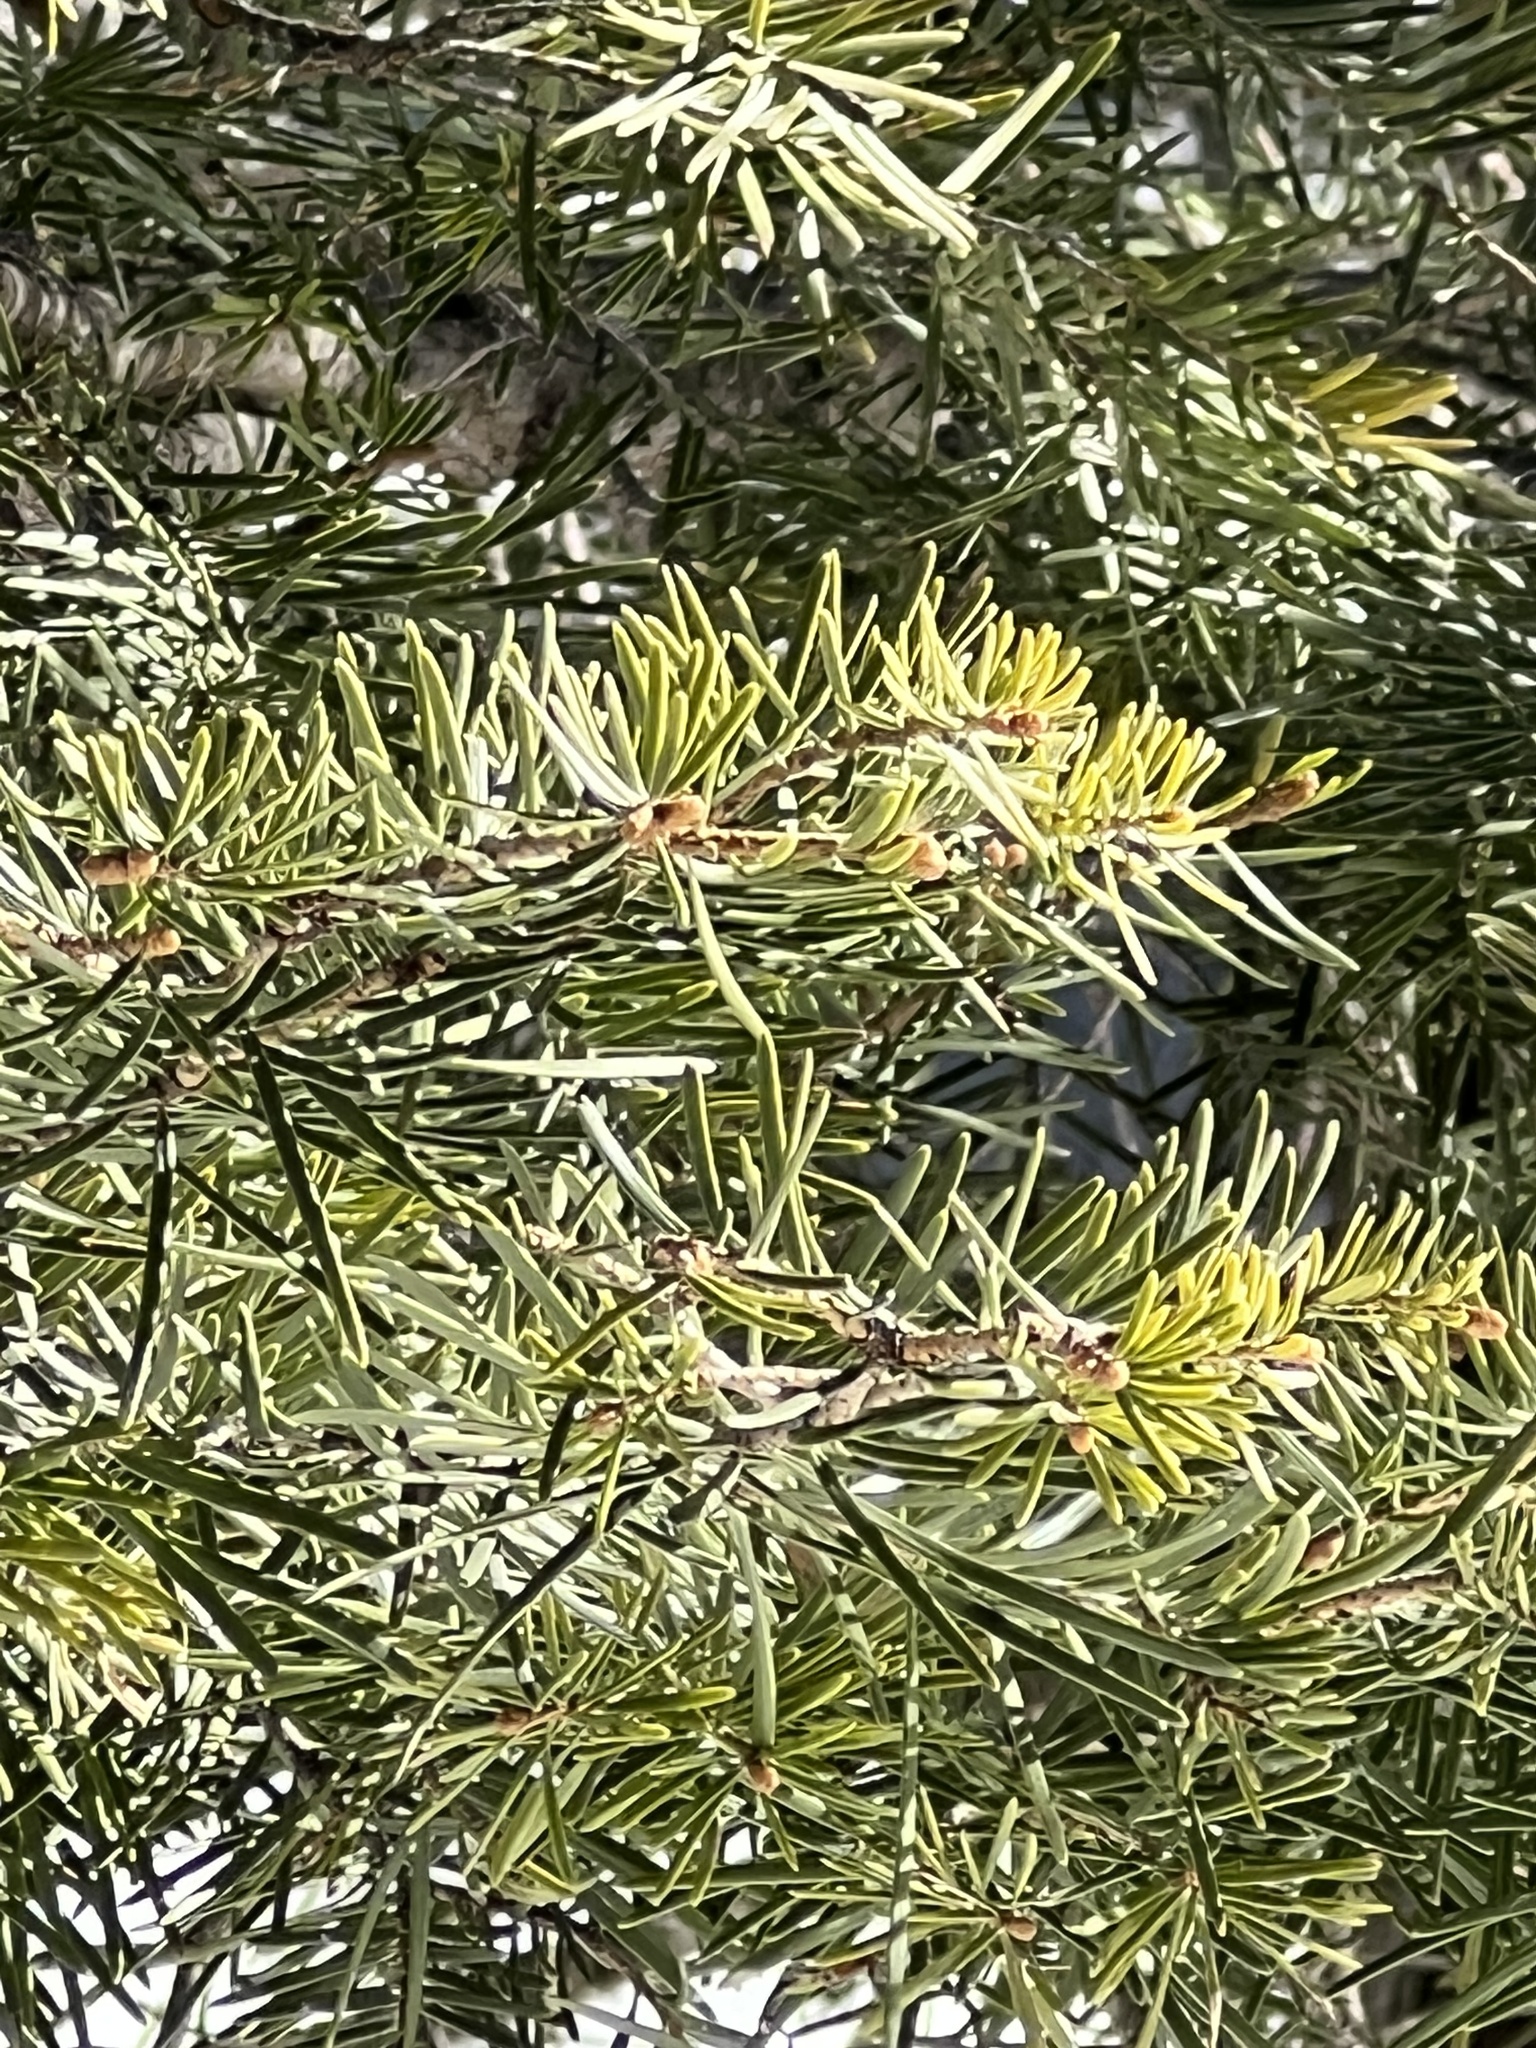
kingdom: Plantae
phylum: Tracheophyta
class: Pinopsida
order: Pinales
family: Pinaceae
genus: Abies
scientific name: Abies concolor
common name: Colorado fir
